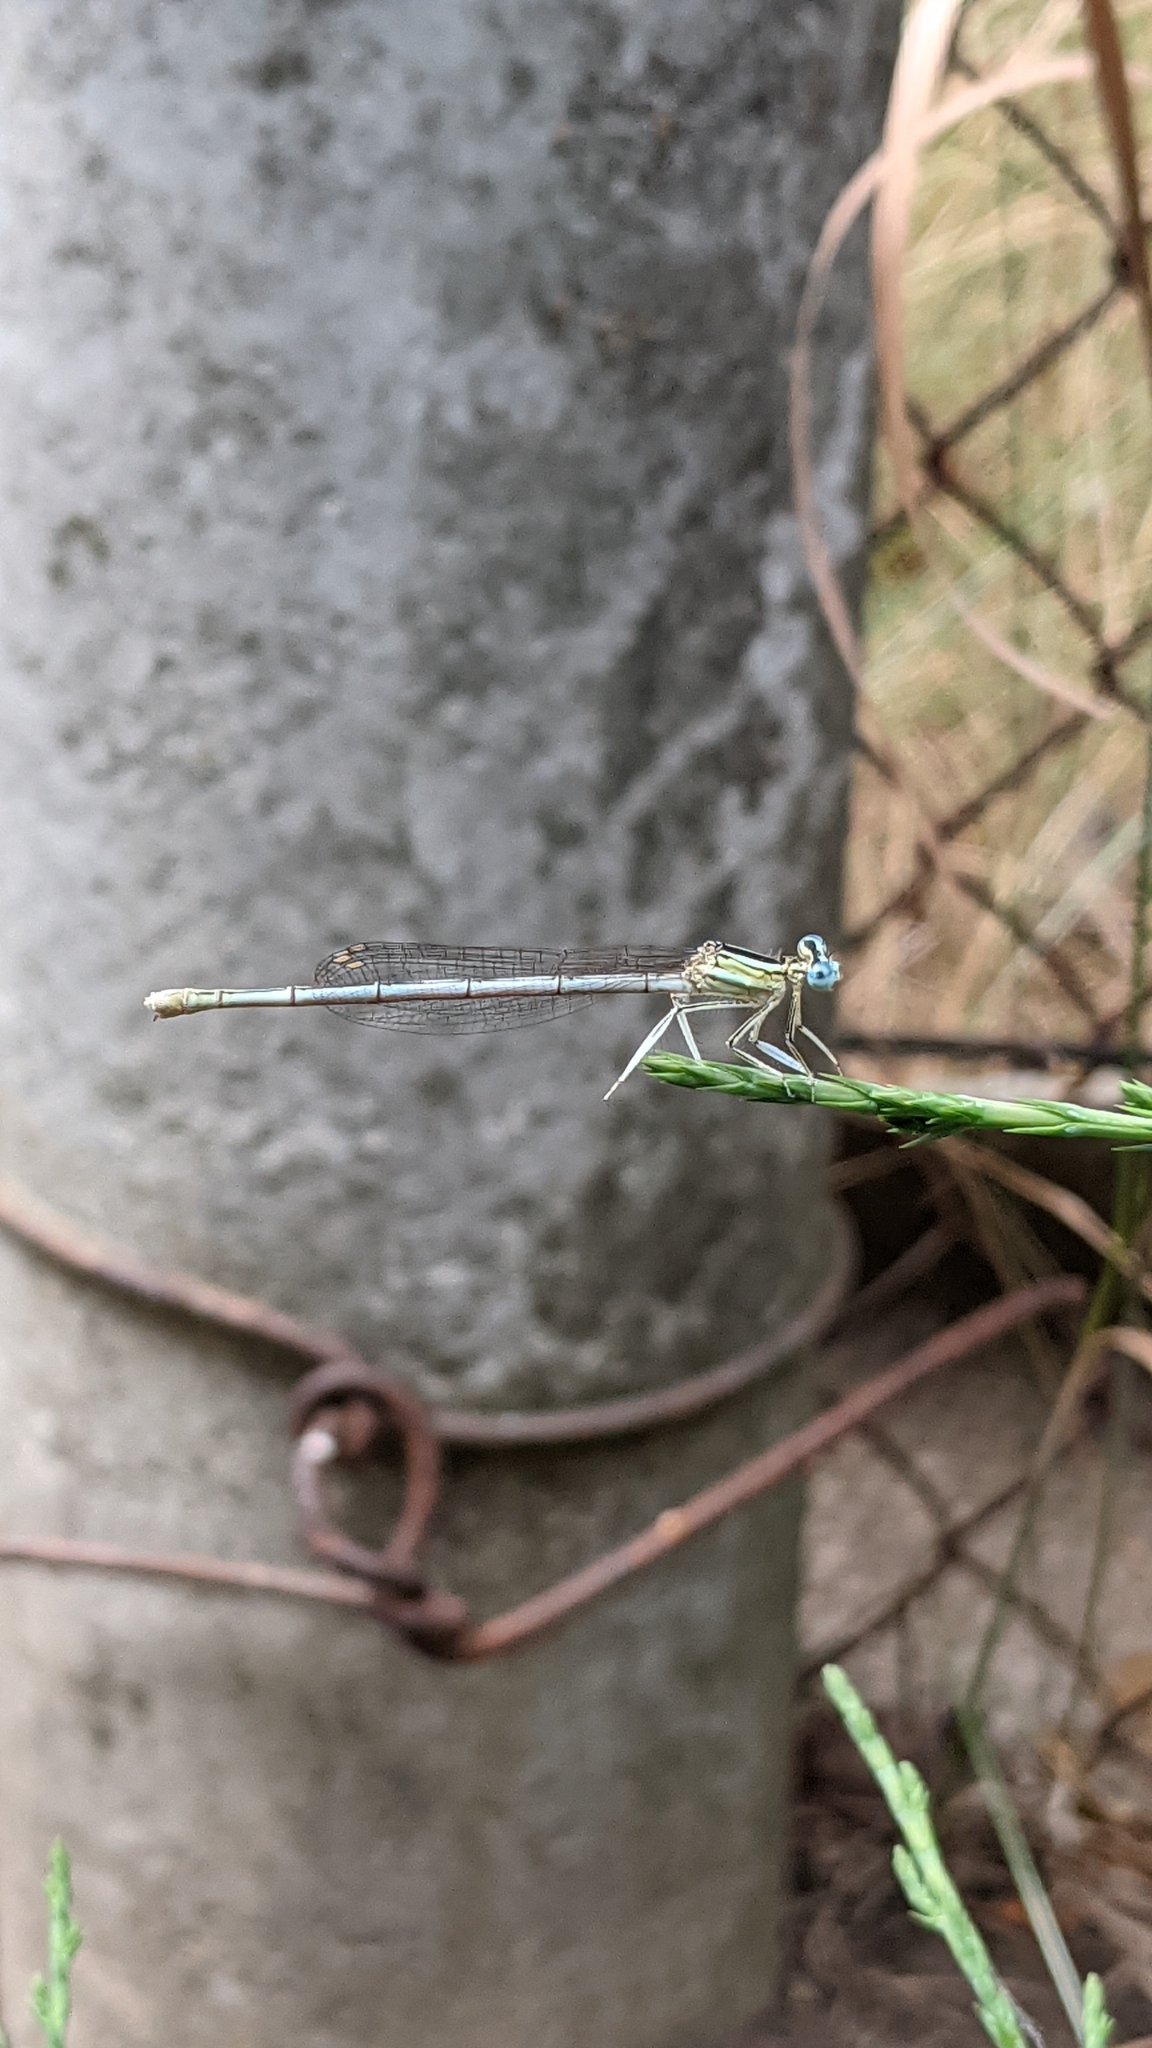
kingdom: Animalia
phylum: Arthropoda
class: Insecta
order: Odonata
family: Platycnemididae
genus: Platycnemis
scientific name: Platycnemis pennipes
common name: White-legged damselfly
